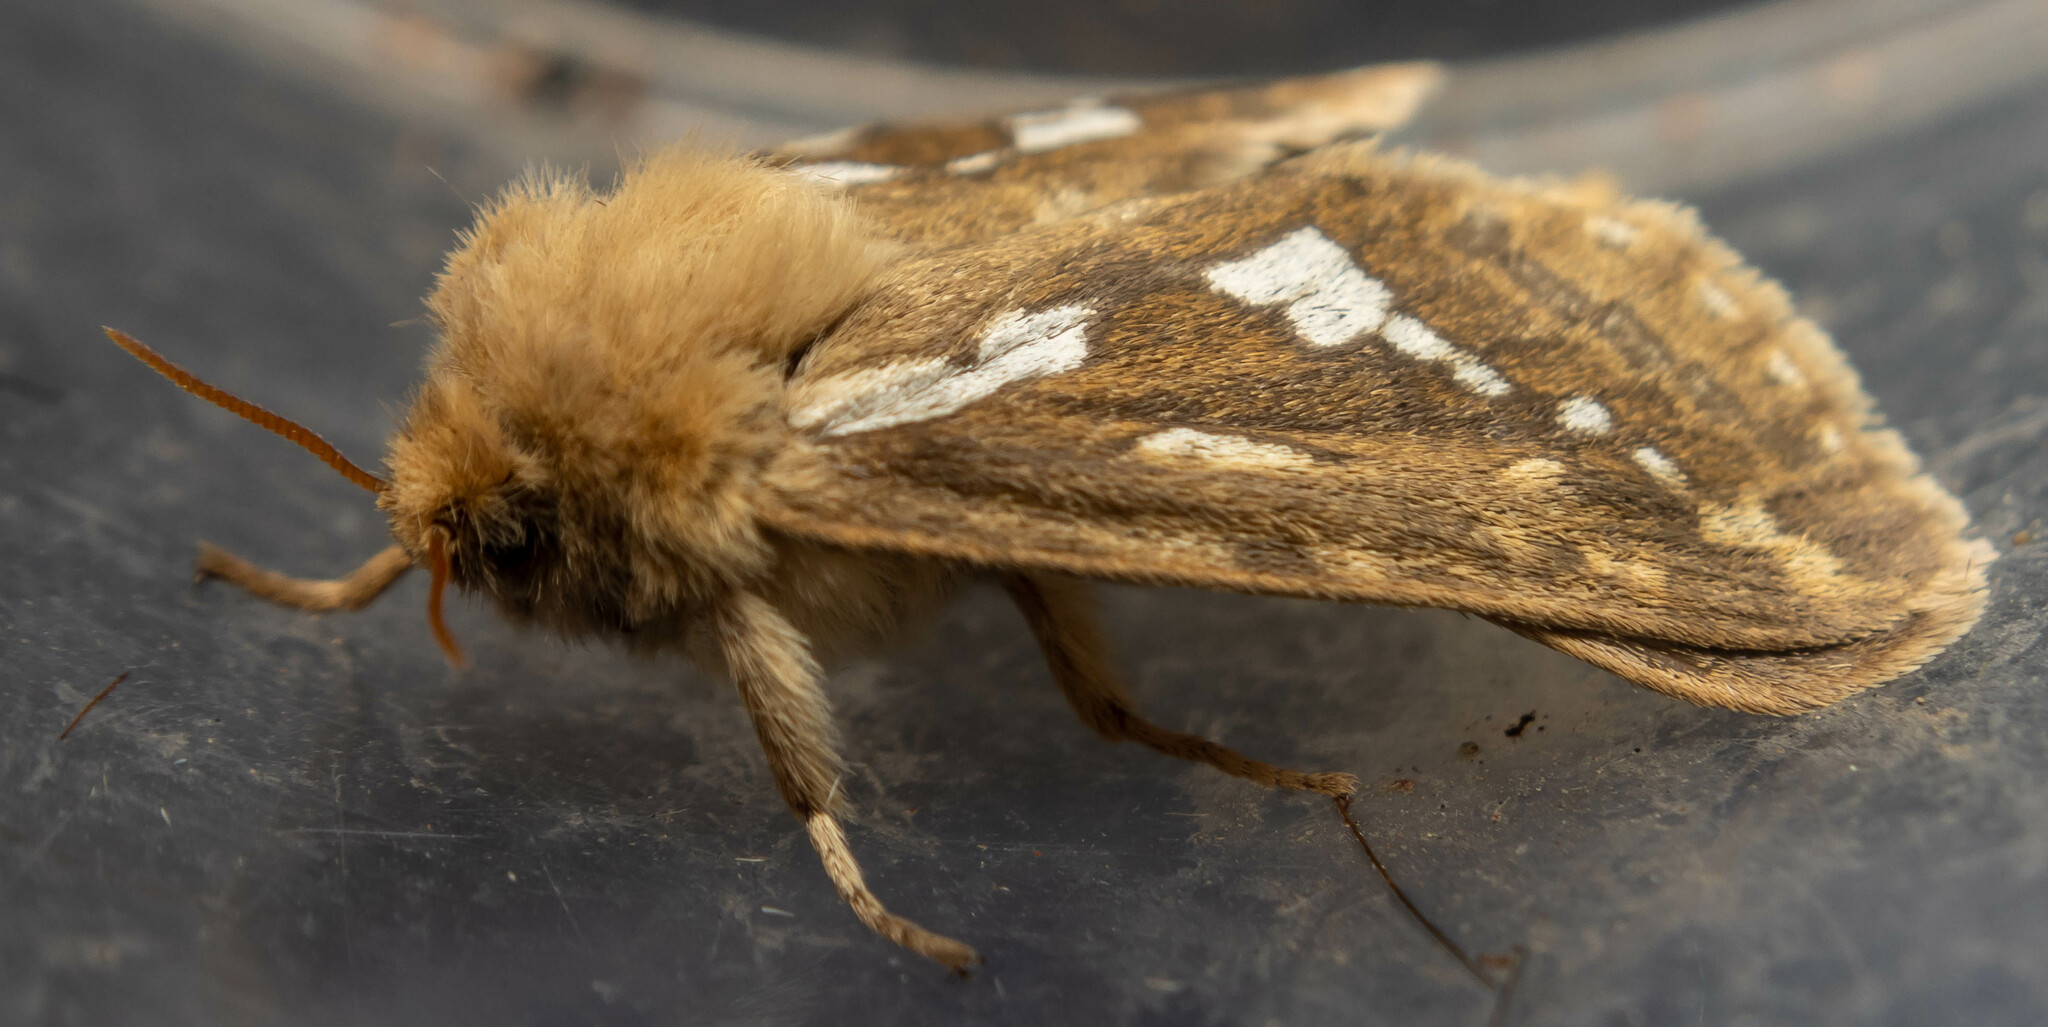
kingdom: Animalia
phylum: Arthropoda
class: Insecta
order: Lepidoptera
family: Hepialidae
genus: Korscheltellus
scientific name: Korscheltellus lupulina
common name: Common swift
